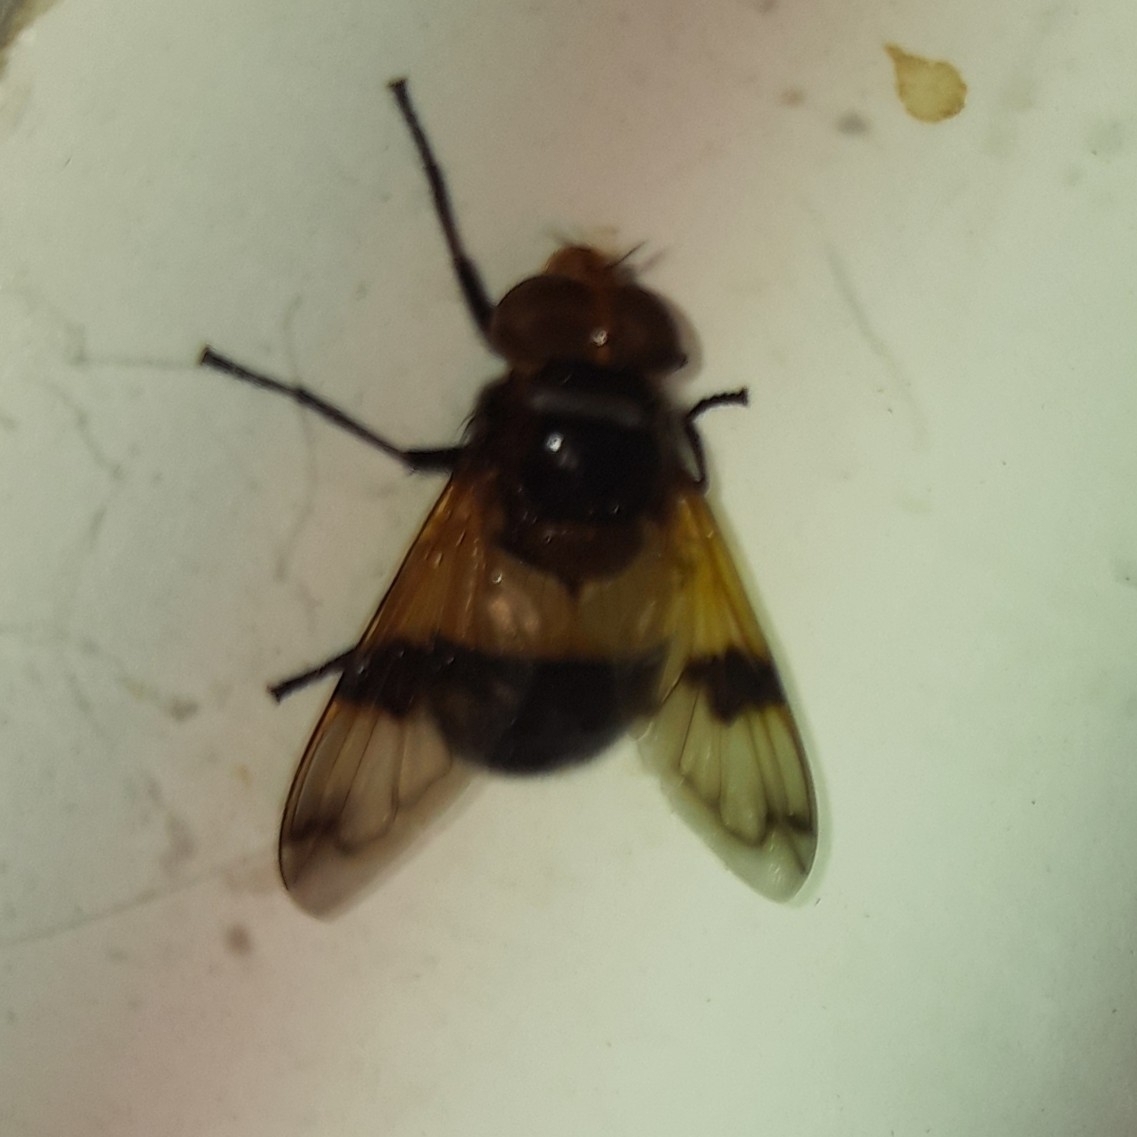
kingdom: Animalia
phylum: Arthropoda
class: Insecta
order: Diptera
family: Syrphidae
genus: Volucella
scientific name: Volucella pellucens
